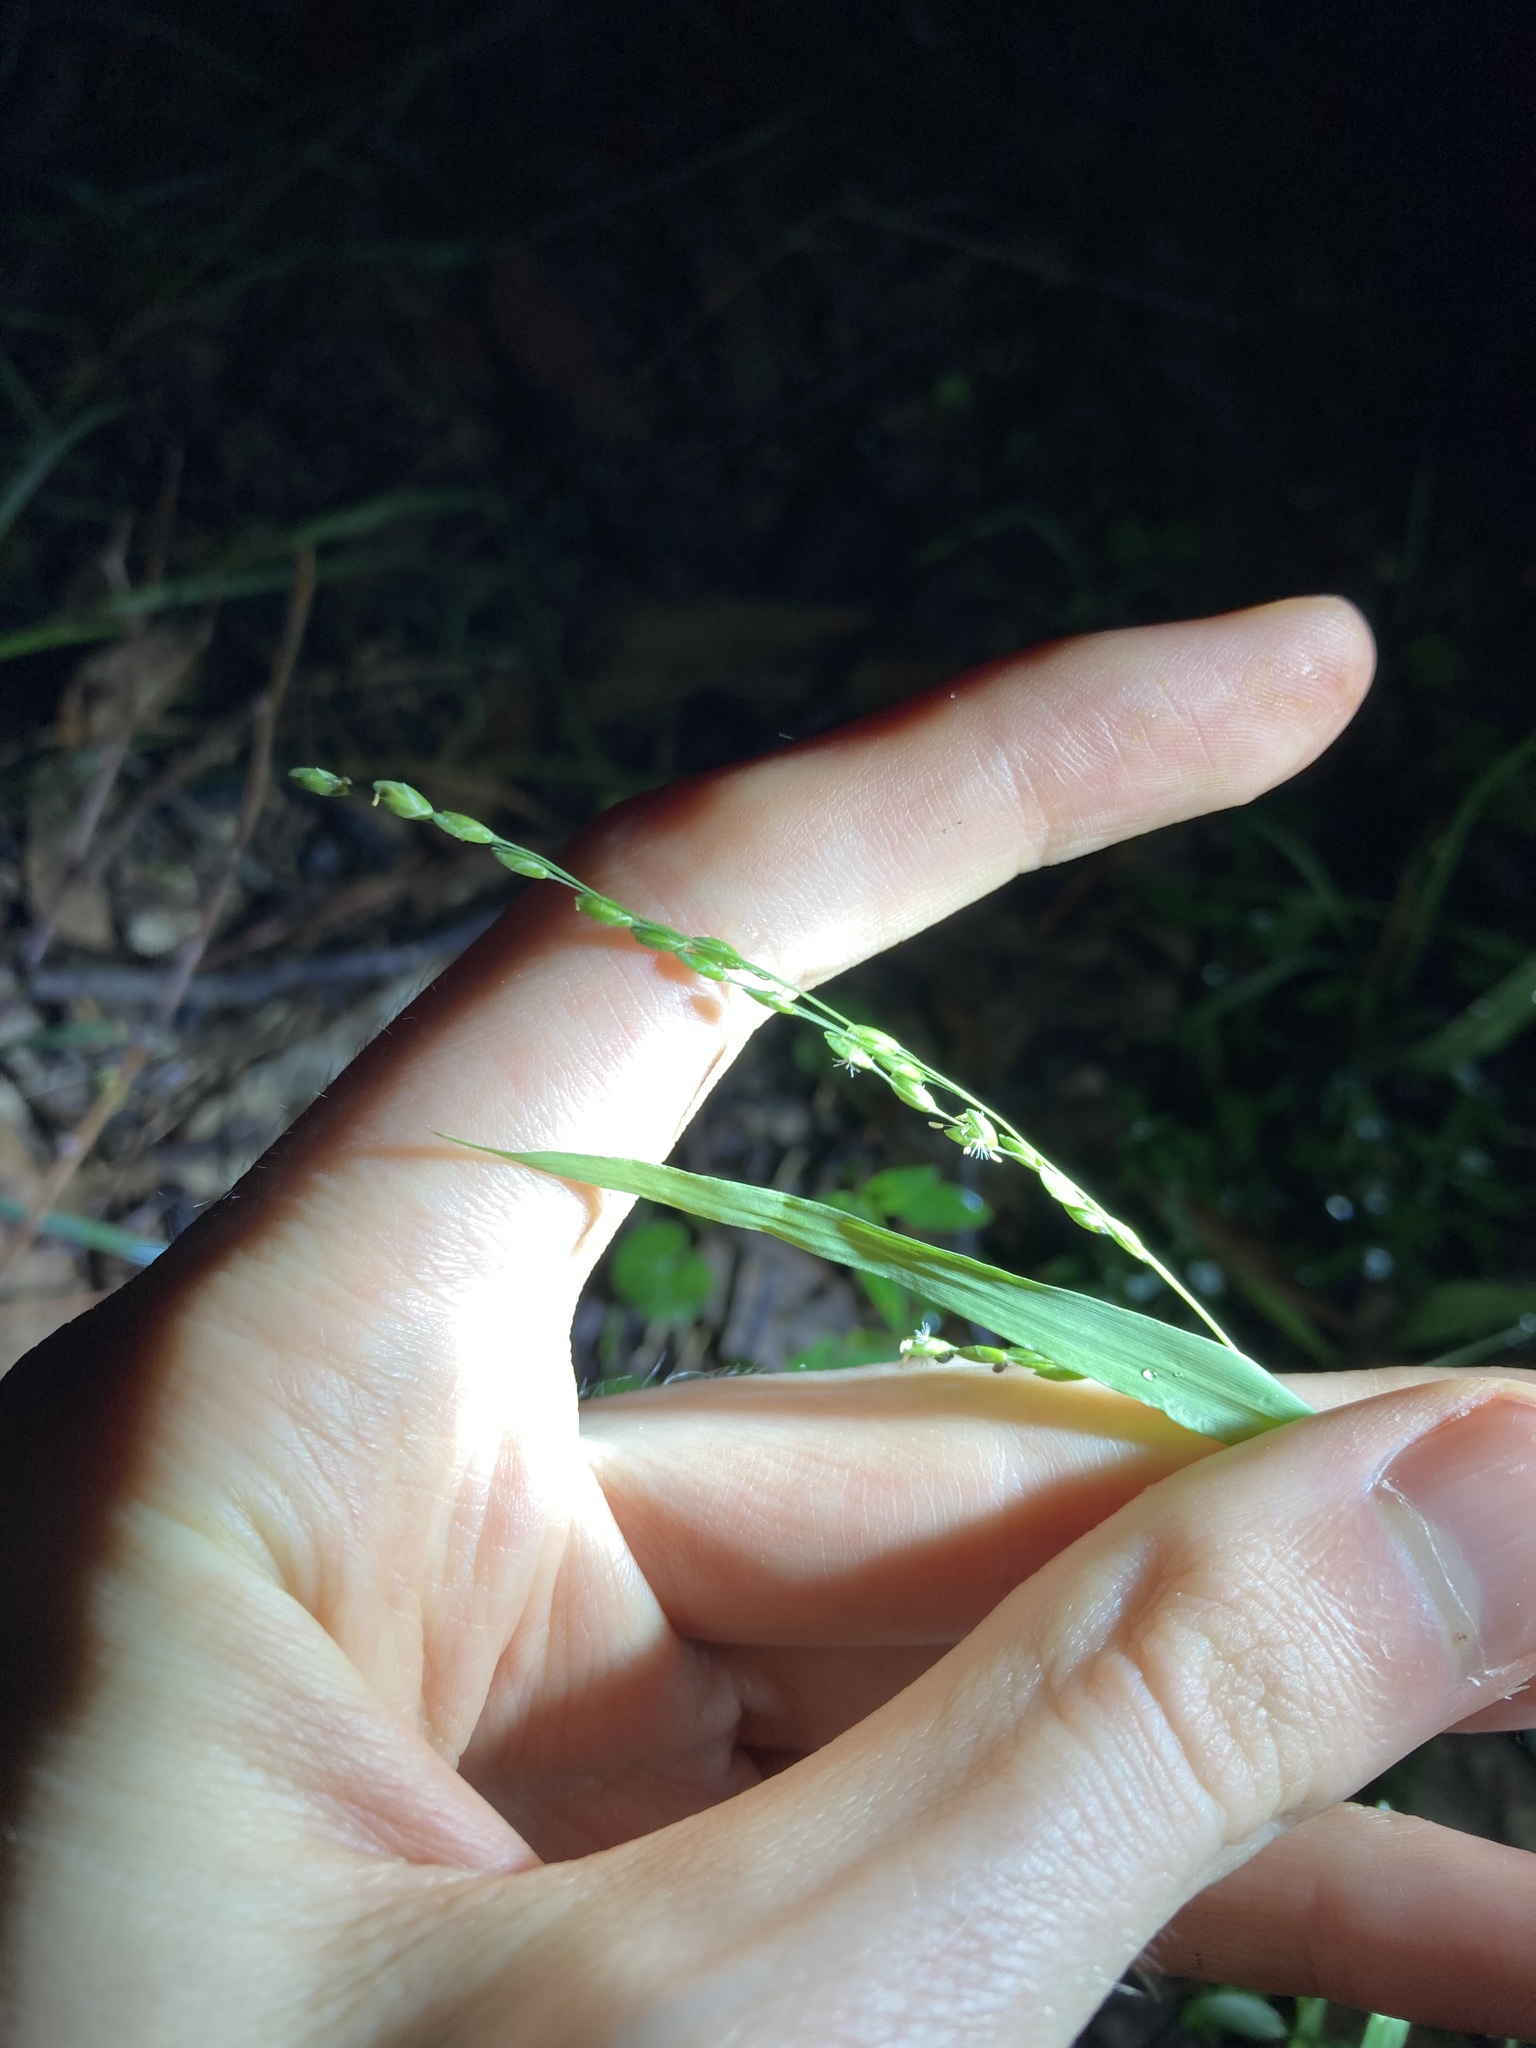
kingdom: Plantae
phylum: Tracheophyta
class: Liliopsida
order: Poales
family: Poaceae
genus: Ehrharta
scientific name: Ehrharta erecta
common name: Panic veldtgrass
